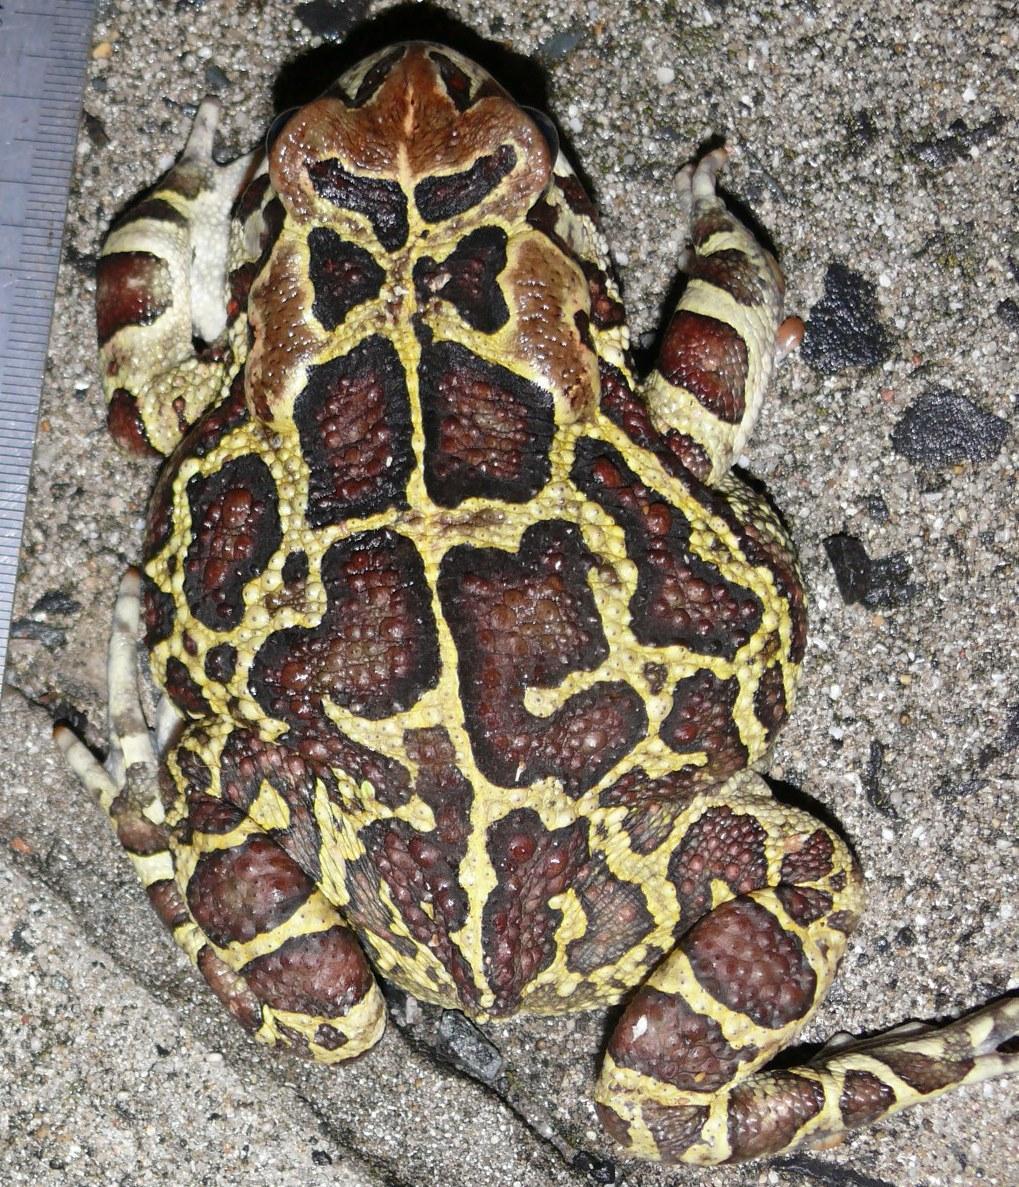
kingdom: Animalia
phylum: Chordata
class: Amphibia
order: Anura
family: Bufonidae
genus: Sclerophrys
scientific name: Sclerophrys pantherina
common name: Panther toad
